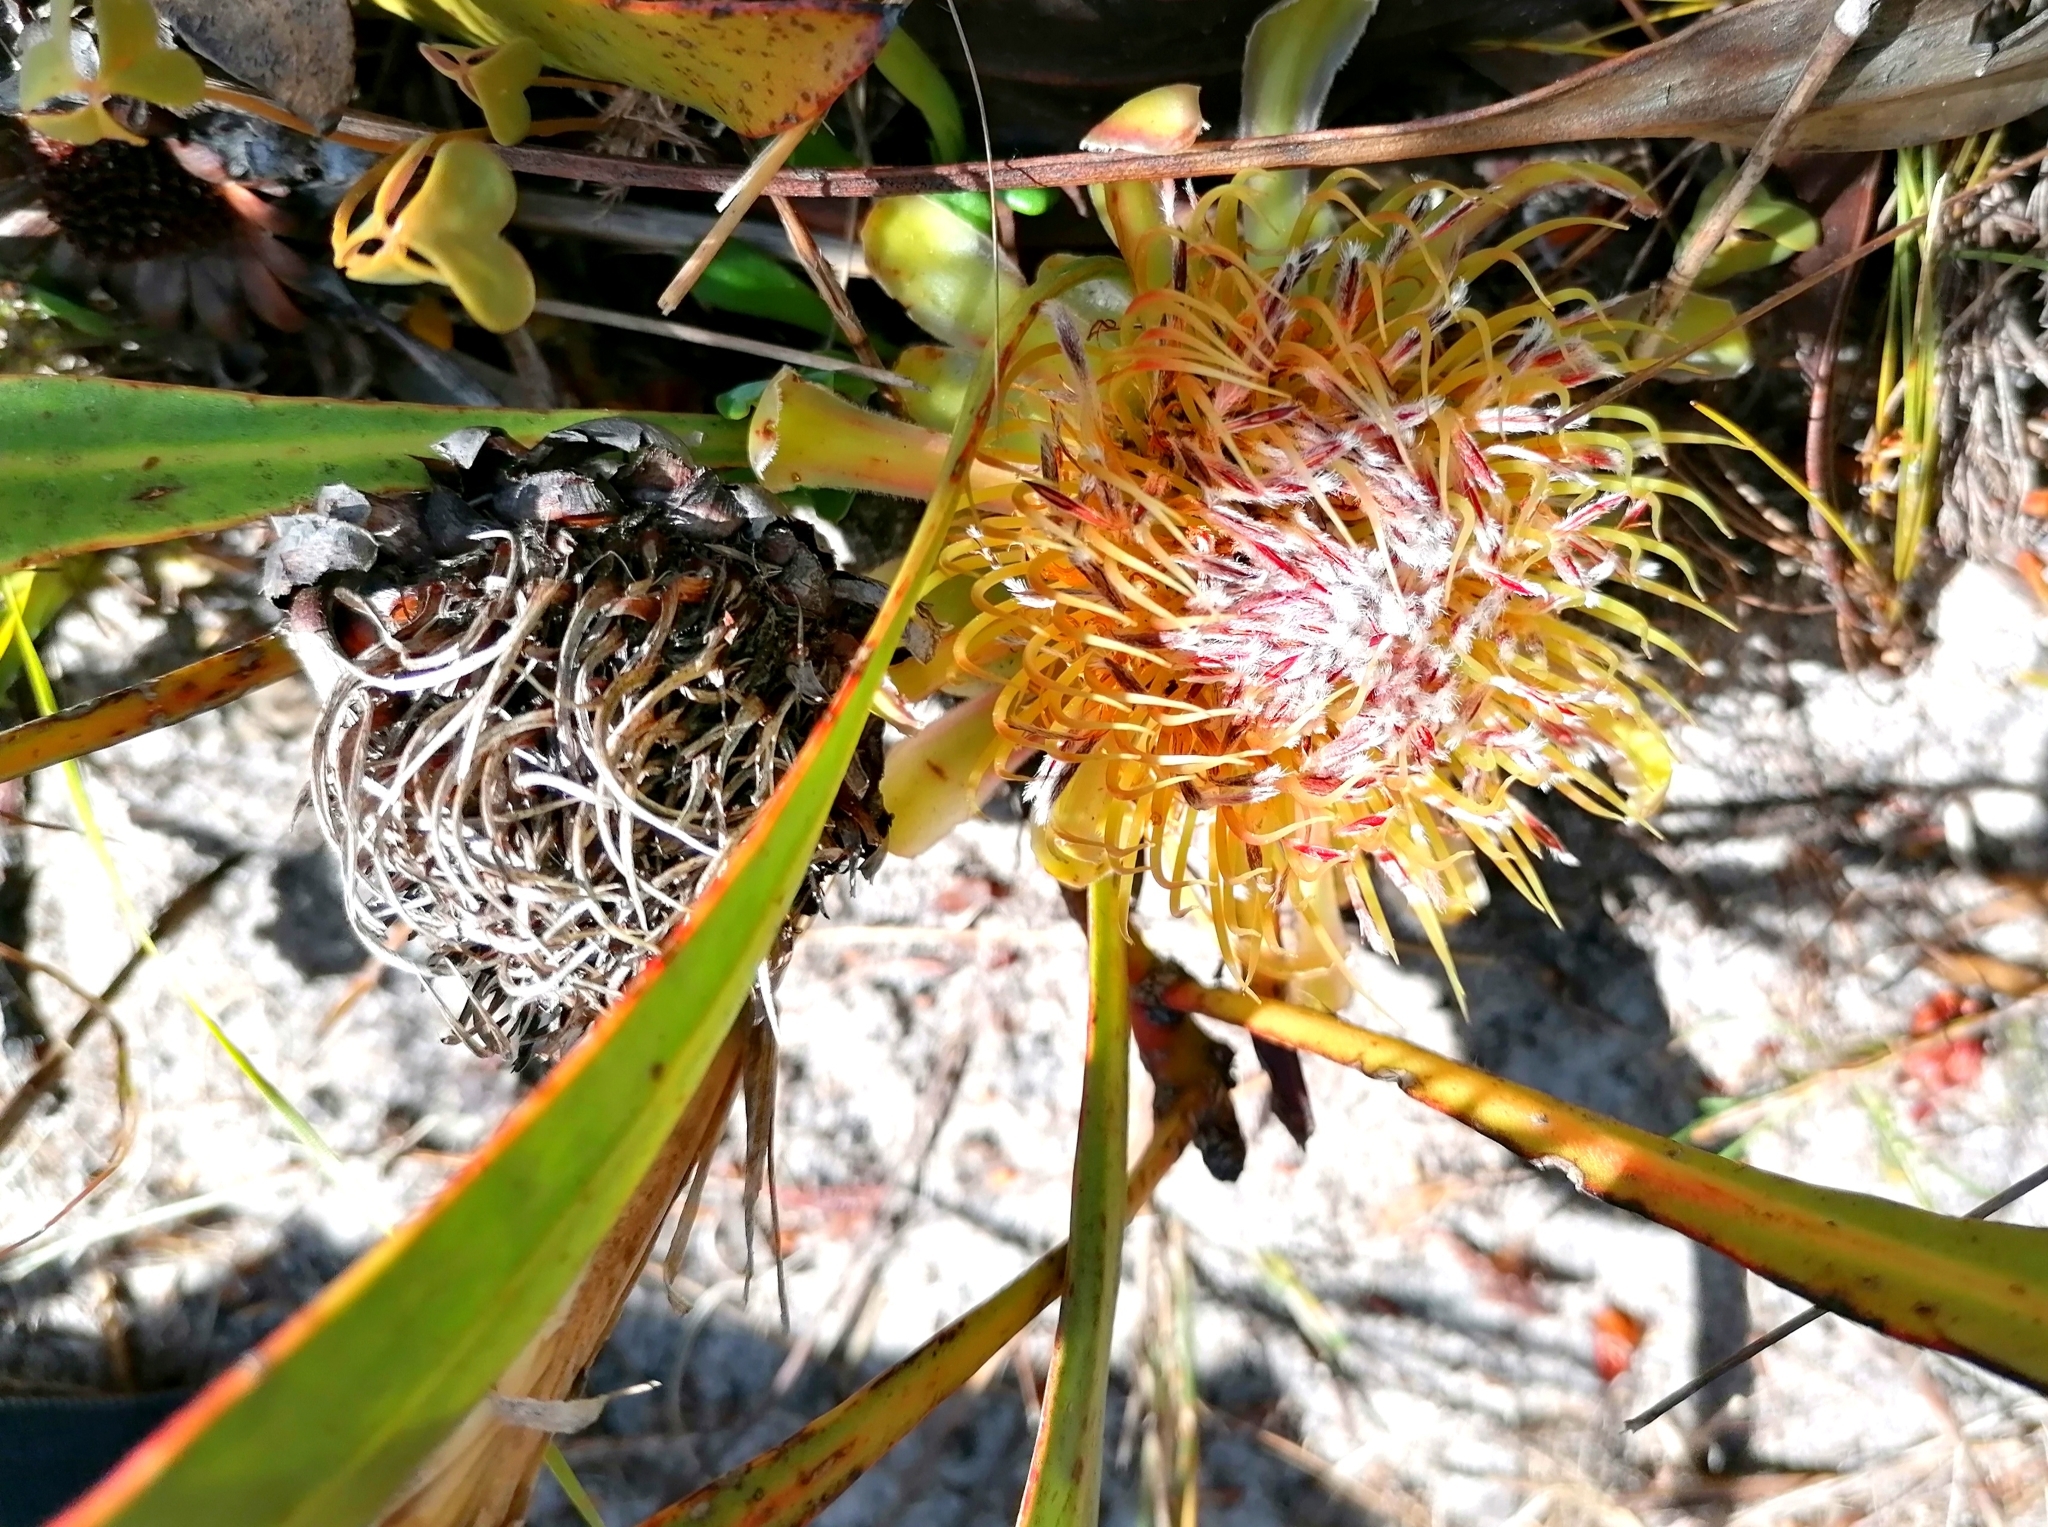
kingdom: Plantae
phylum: Tracheophyta
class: Magnoliopsida
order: Proteales
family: Proteaceae
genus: Protea
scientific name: Protea acaulos
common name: Common ground sugarbush
